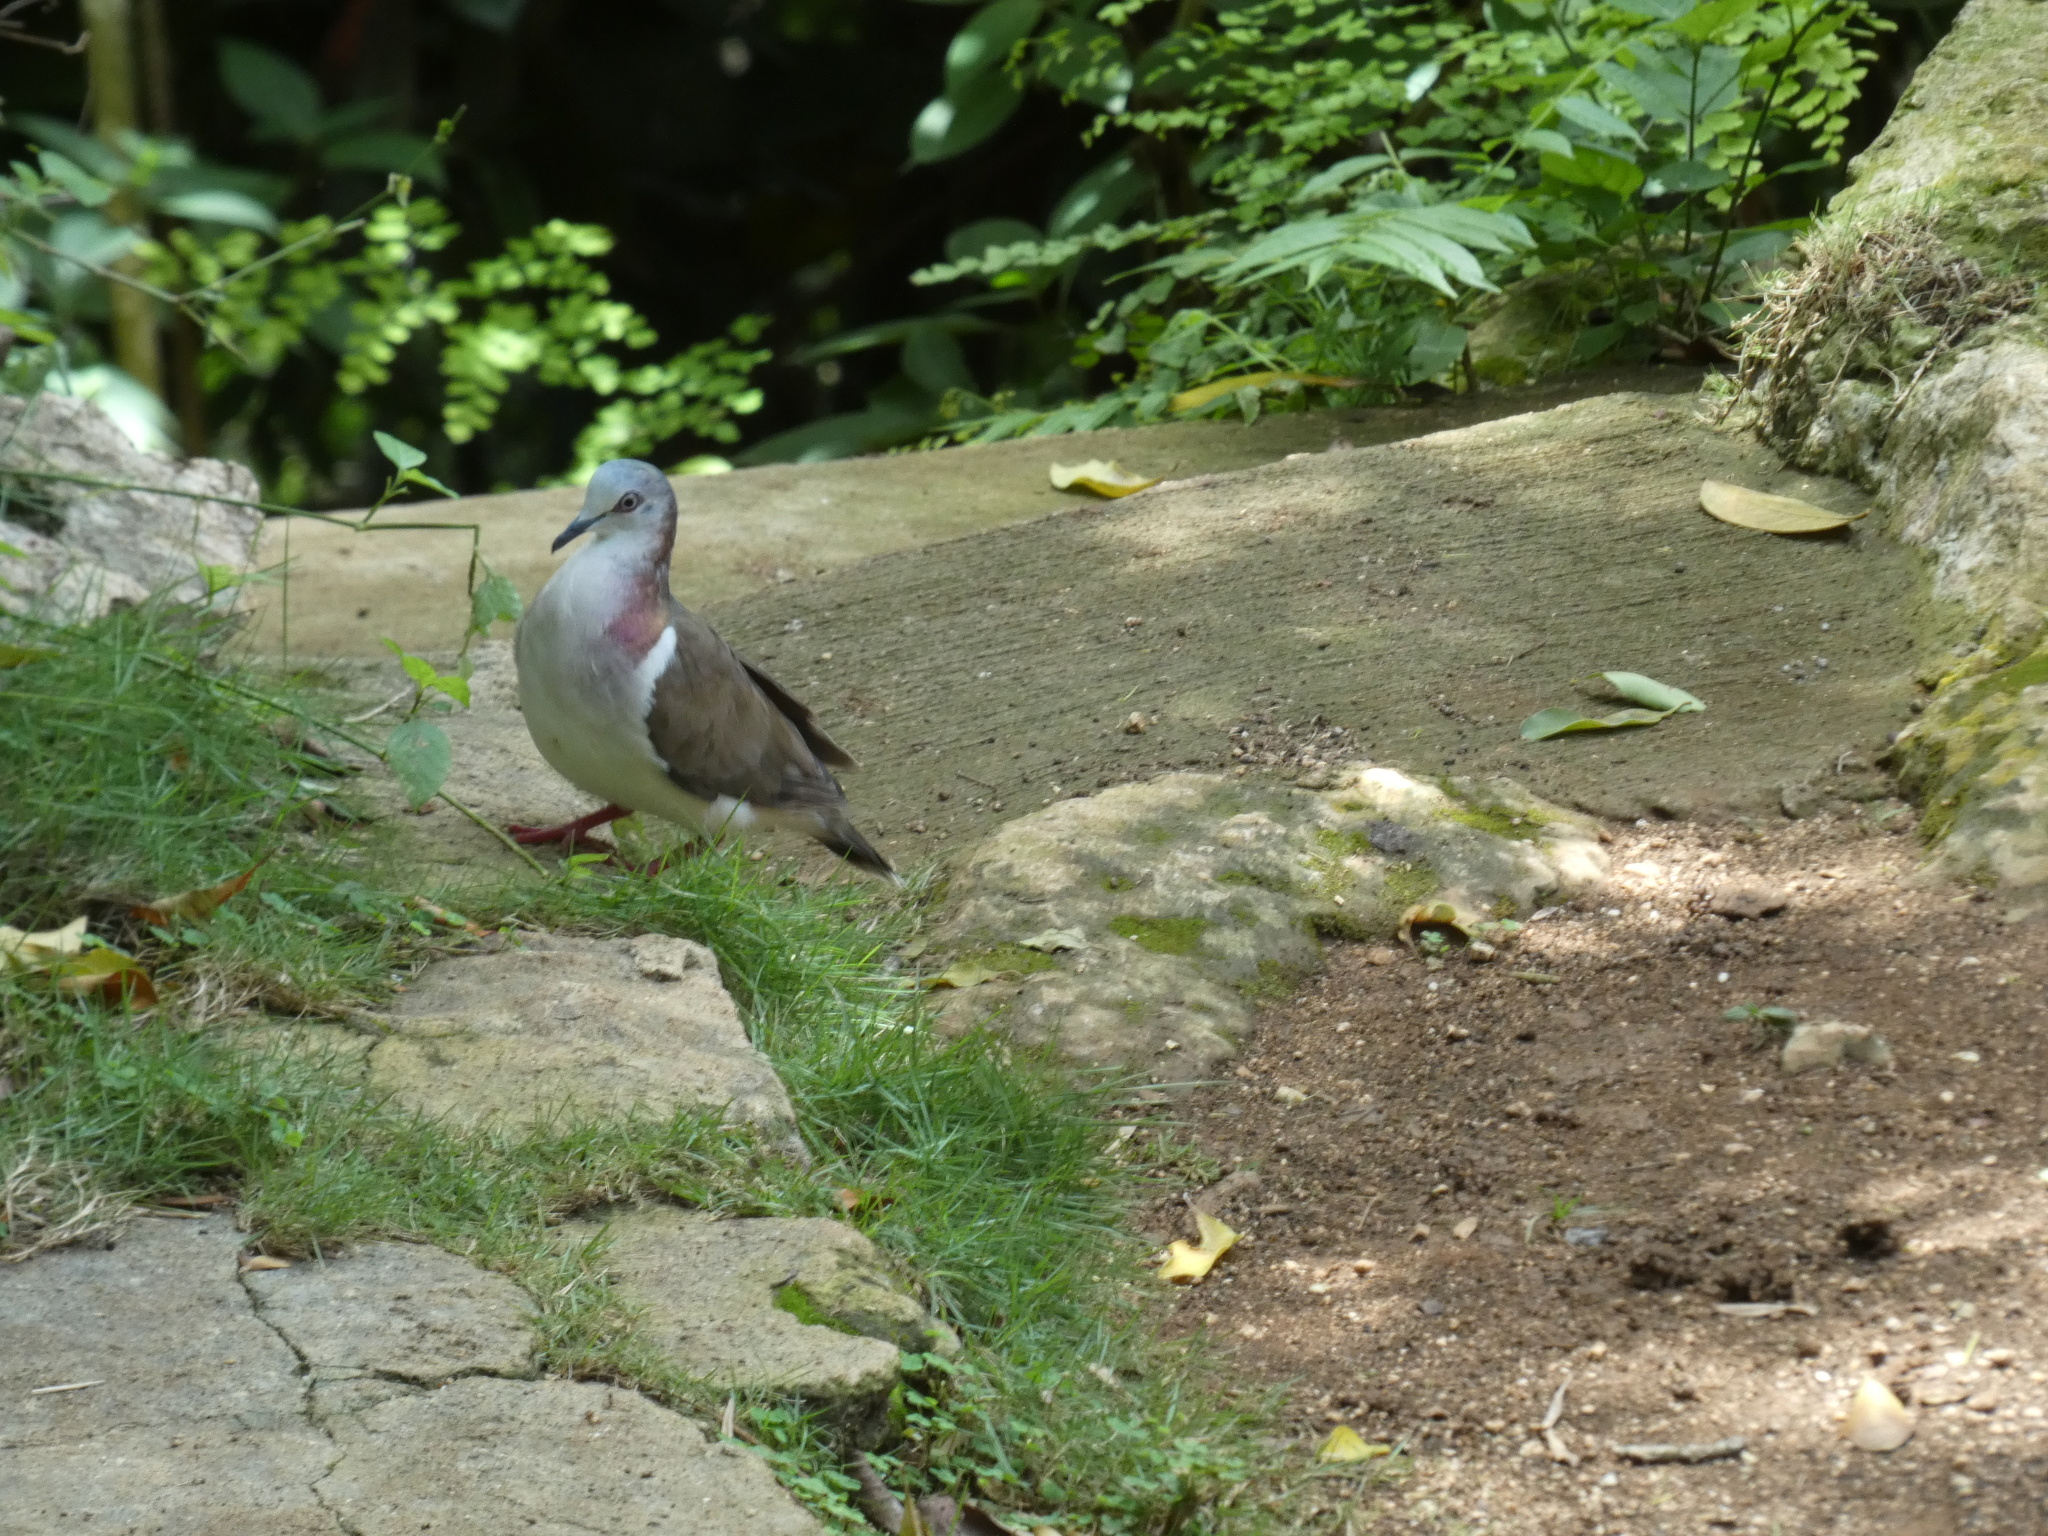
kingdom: Animalia
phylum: Chordata
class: Aves
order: Columbiformes
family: Columbidae
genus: Leptotila
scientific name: Leptotila jamaicensis
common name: Caribbean dove
